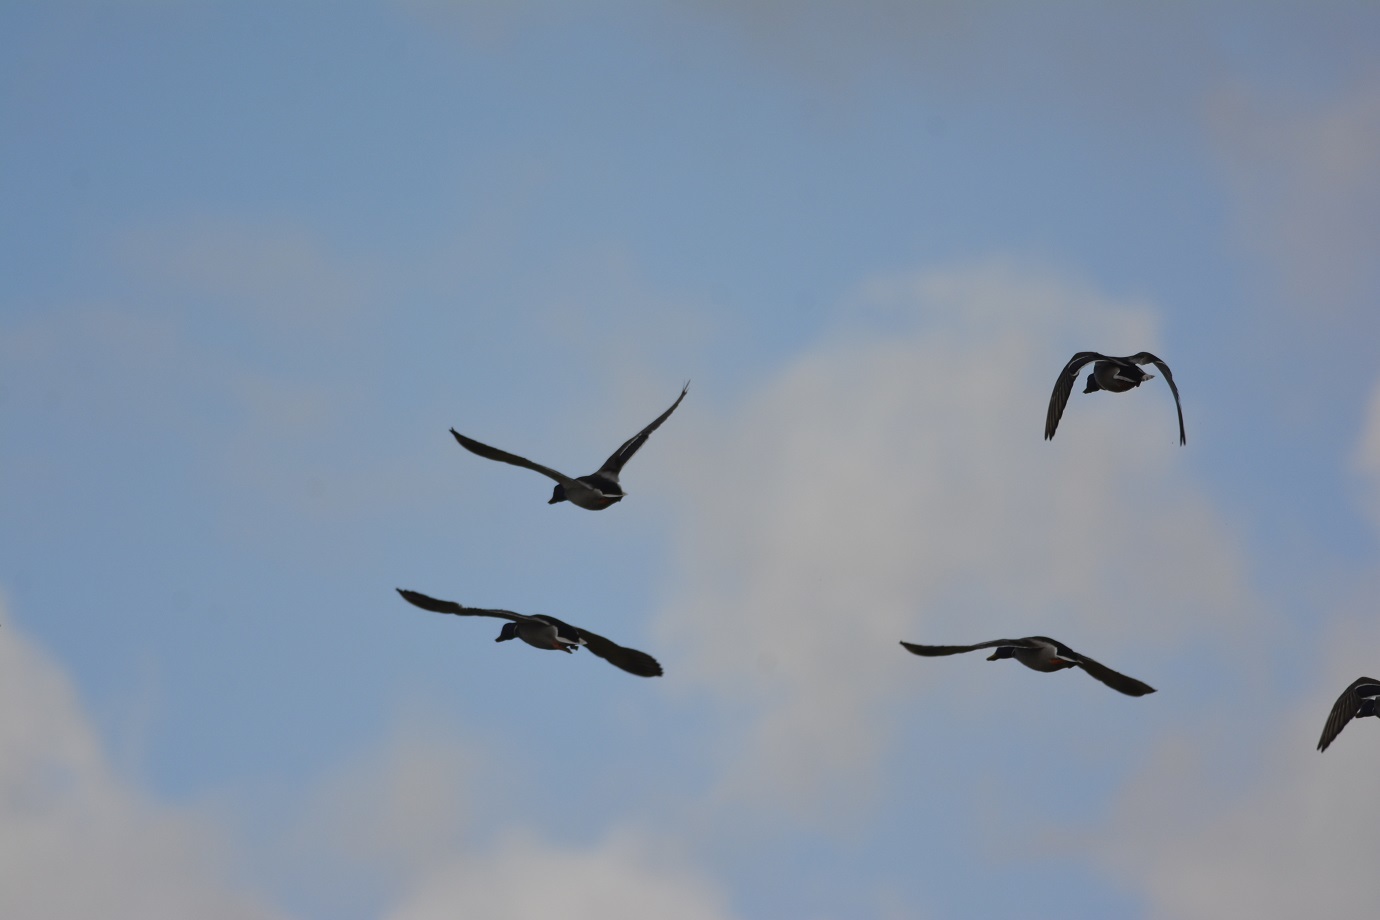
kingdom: Animalia
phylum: Chordata
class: Aves
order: Anseriformes
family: Anatidae
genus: Anas
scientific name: Anas platyrhynchos
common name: Mallard
